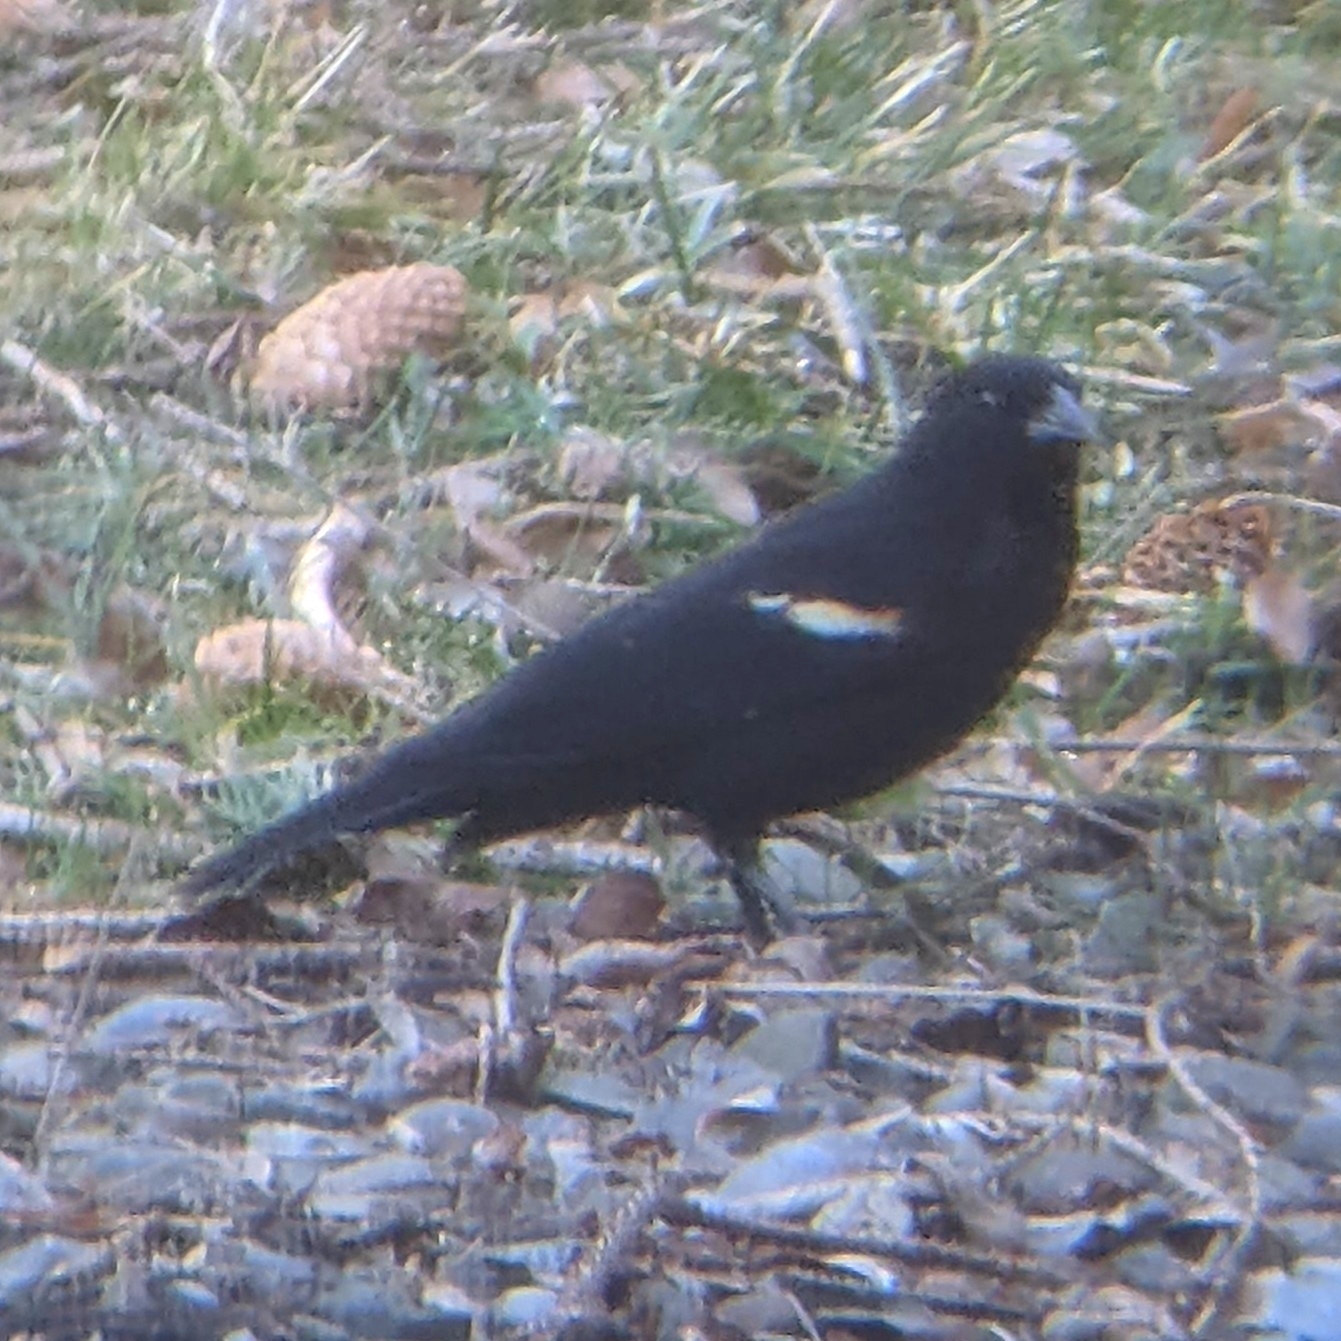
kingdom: Animalia
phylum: Chordata
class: Aves
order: Passeriformes
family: Icteridae
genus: Agelaius
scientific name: Agelaius phoeniceus
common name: Red-winged blackbird
